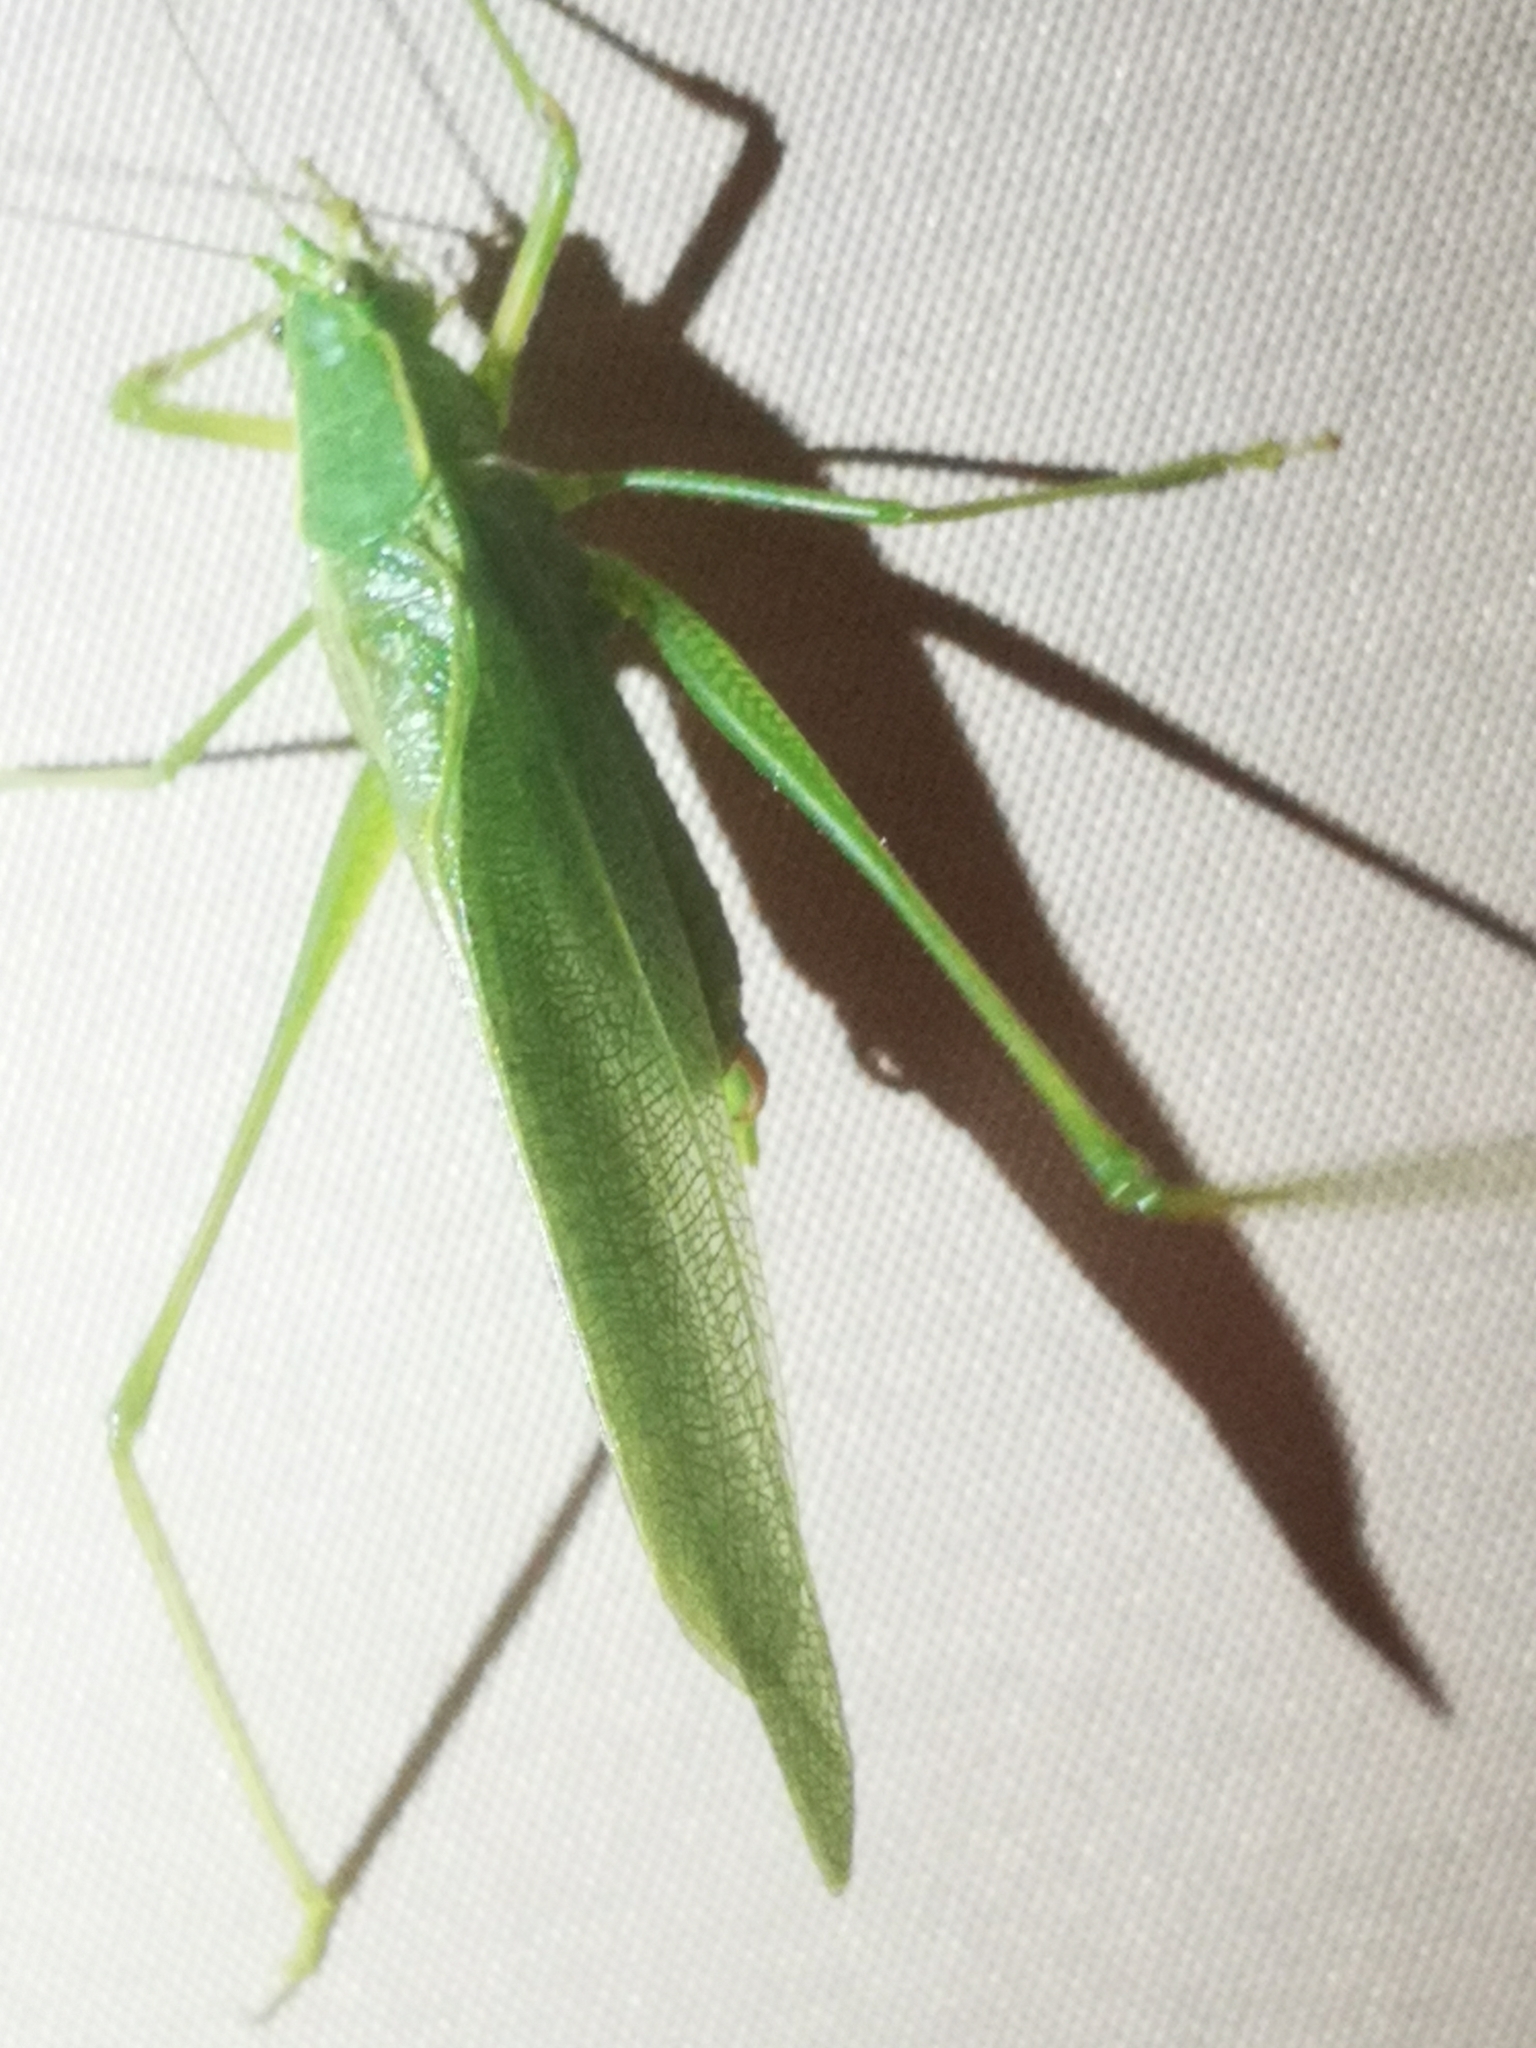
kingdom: Animalia
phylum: Arthropoda
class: Insecta
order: Orthoptera
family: Tettigoniidae
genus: Scudderia
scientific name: Scudderia septentrionalis
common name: Northern bush-katydid
